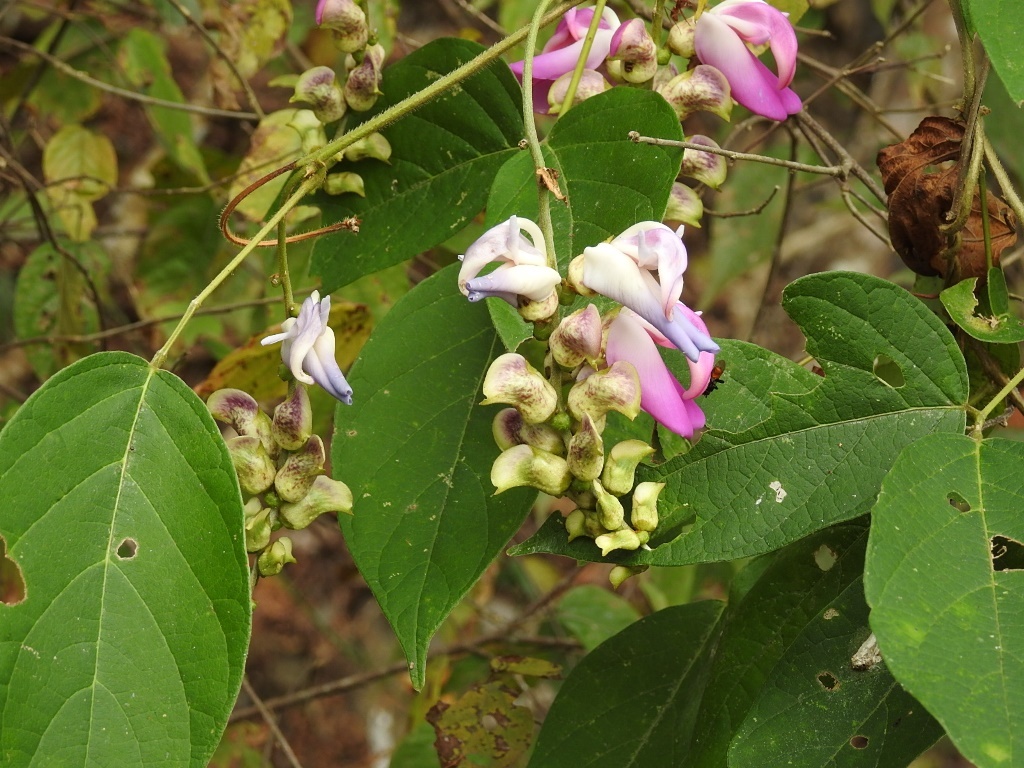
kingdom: Plantae
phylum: Tracheophyta
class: Magnoliopsida
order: Fabales
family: Fabaceae
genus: Canavalia
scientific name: Canavalia oxyphylla
